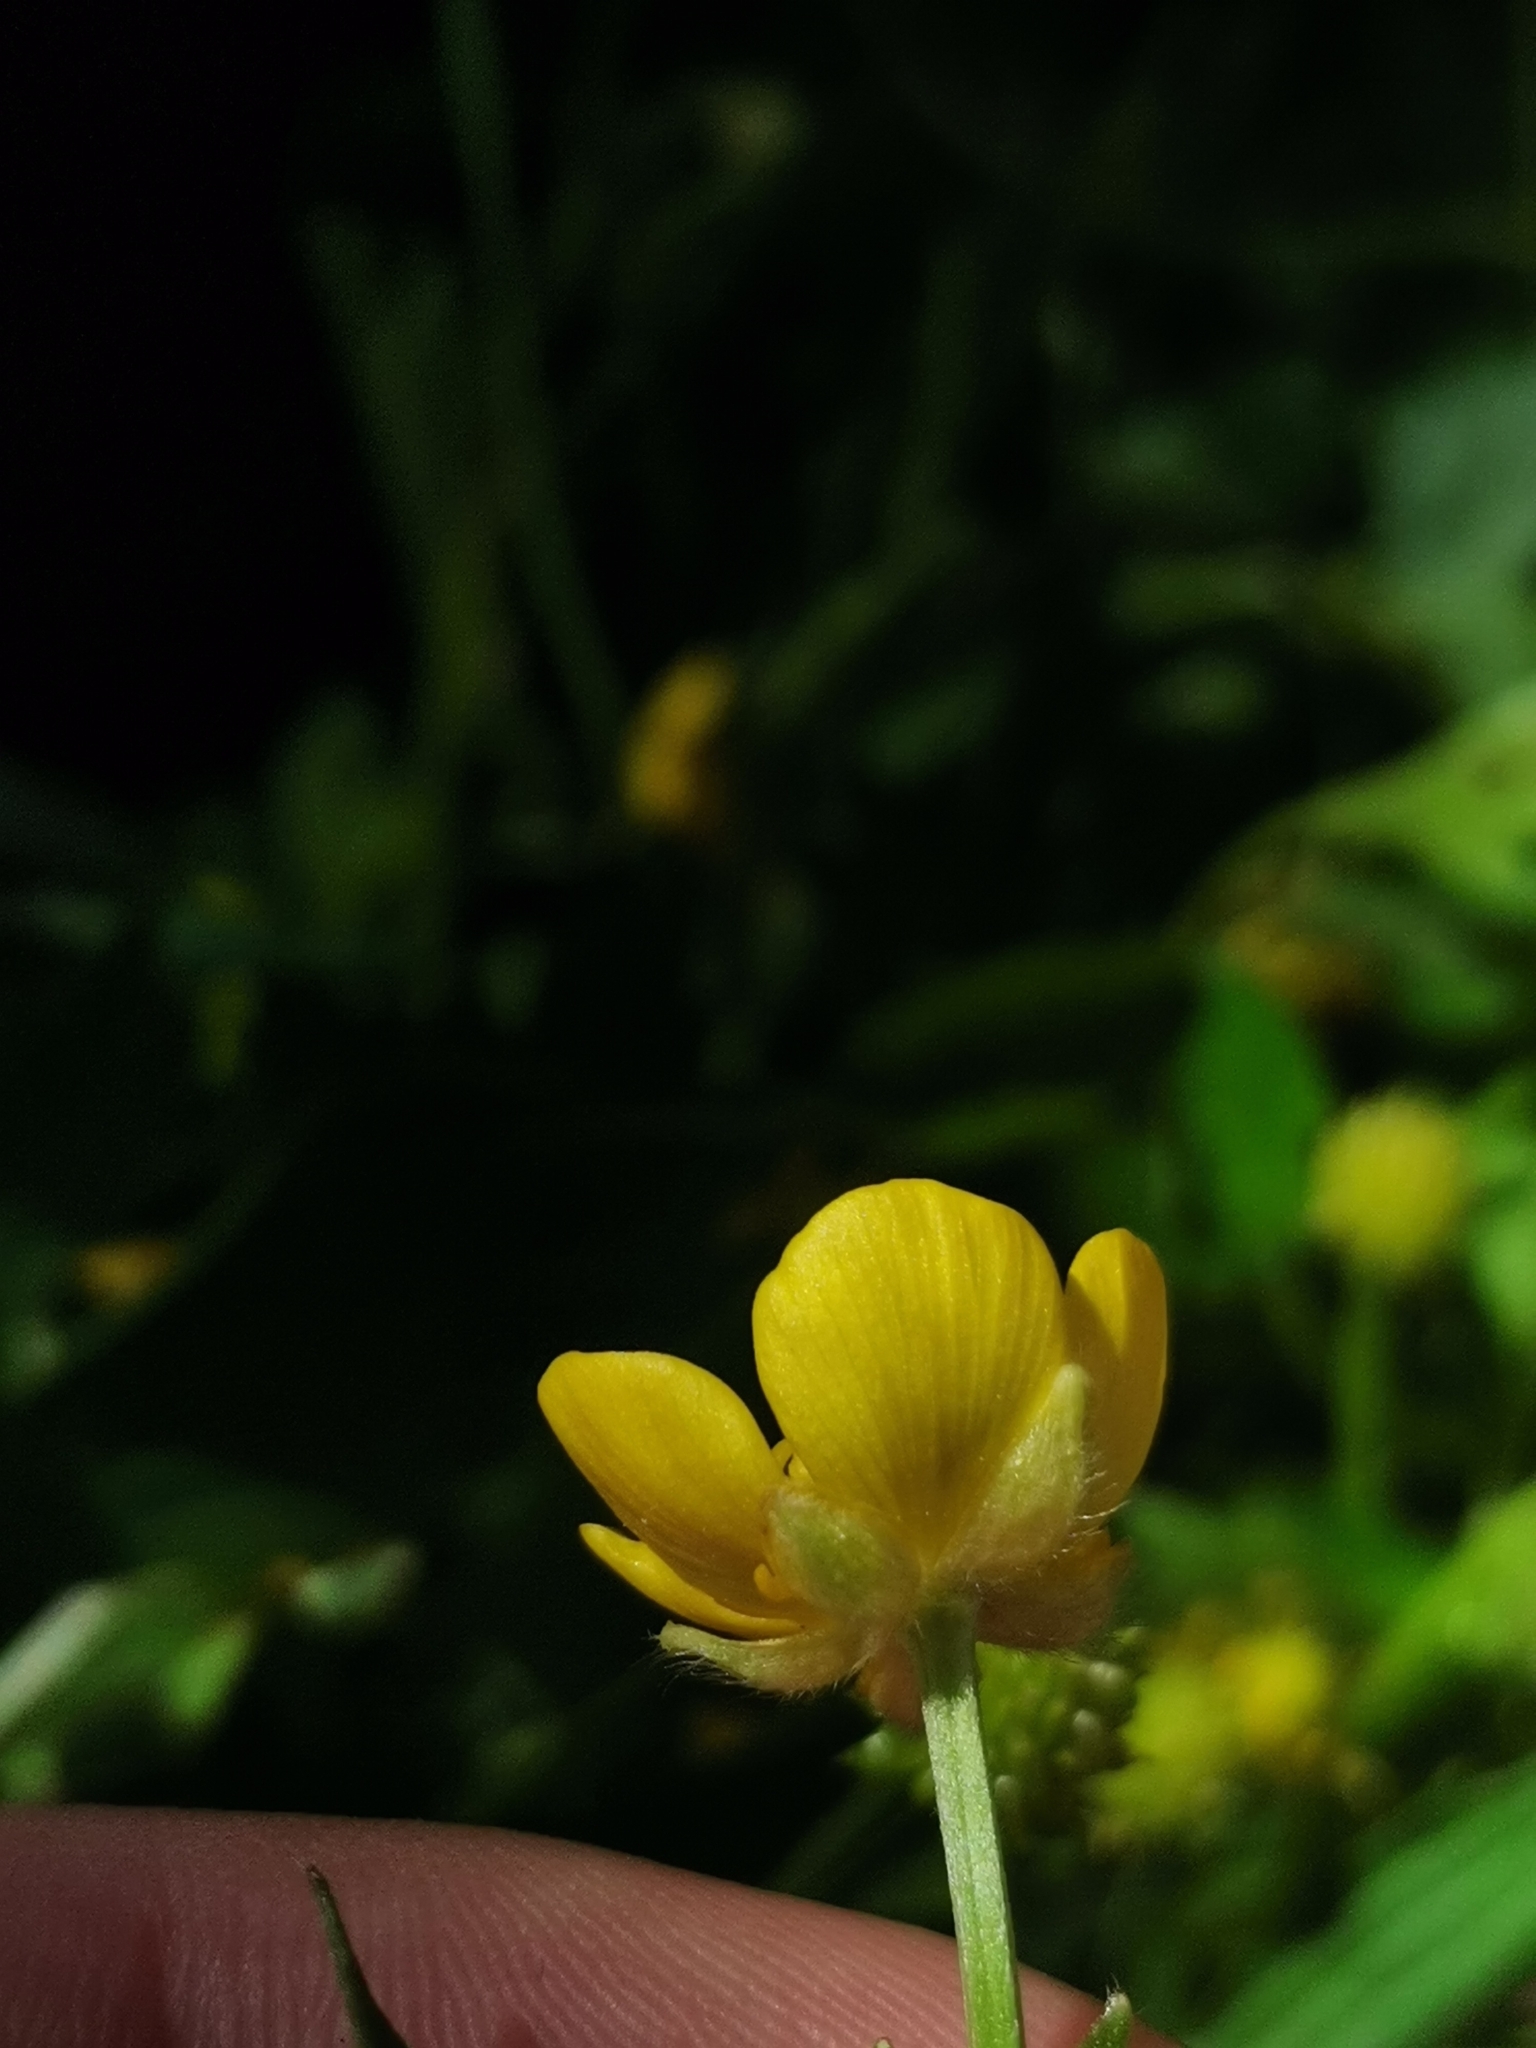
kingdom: Plantae
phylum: Tracheophyta
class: Magnoliopsida
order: Ranunculales
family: Ranunculaceae
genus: Ranunculus
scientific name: Ranunculus repens
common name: Creeping buttercup
